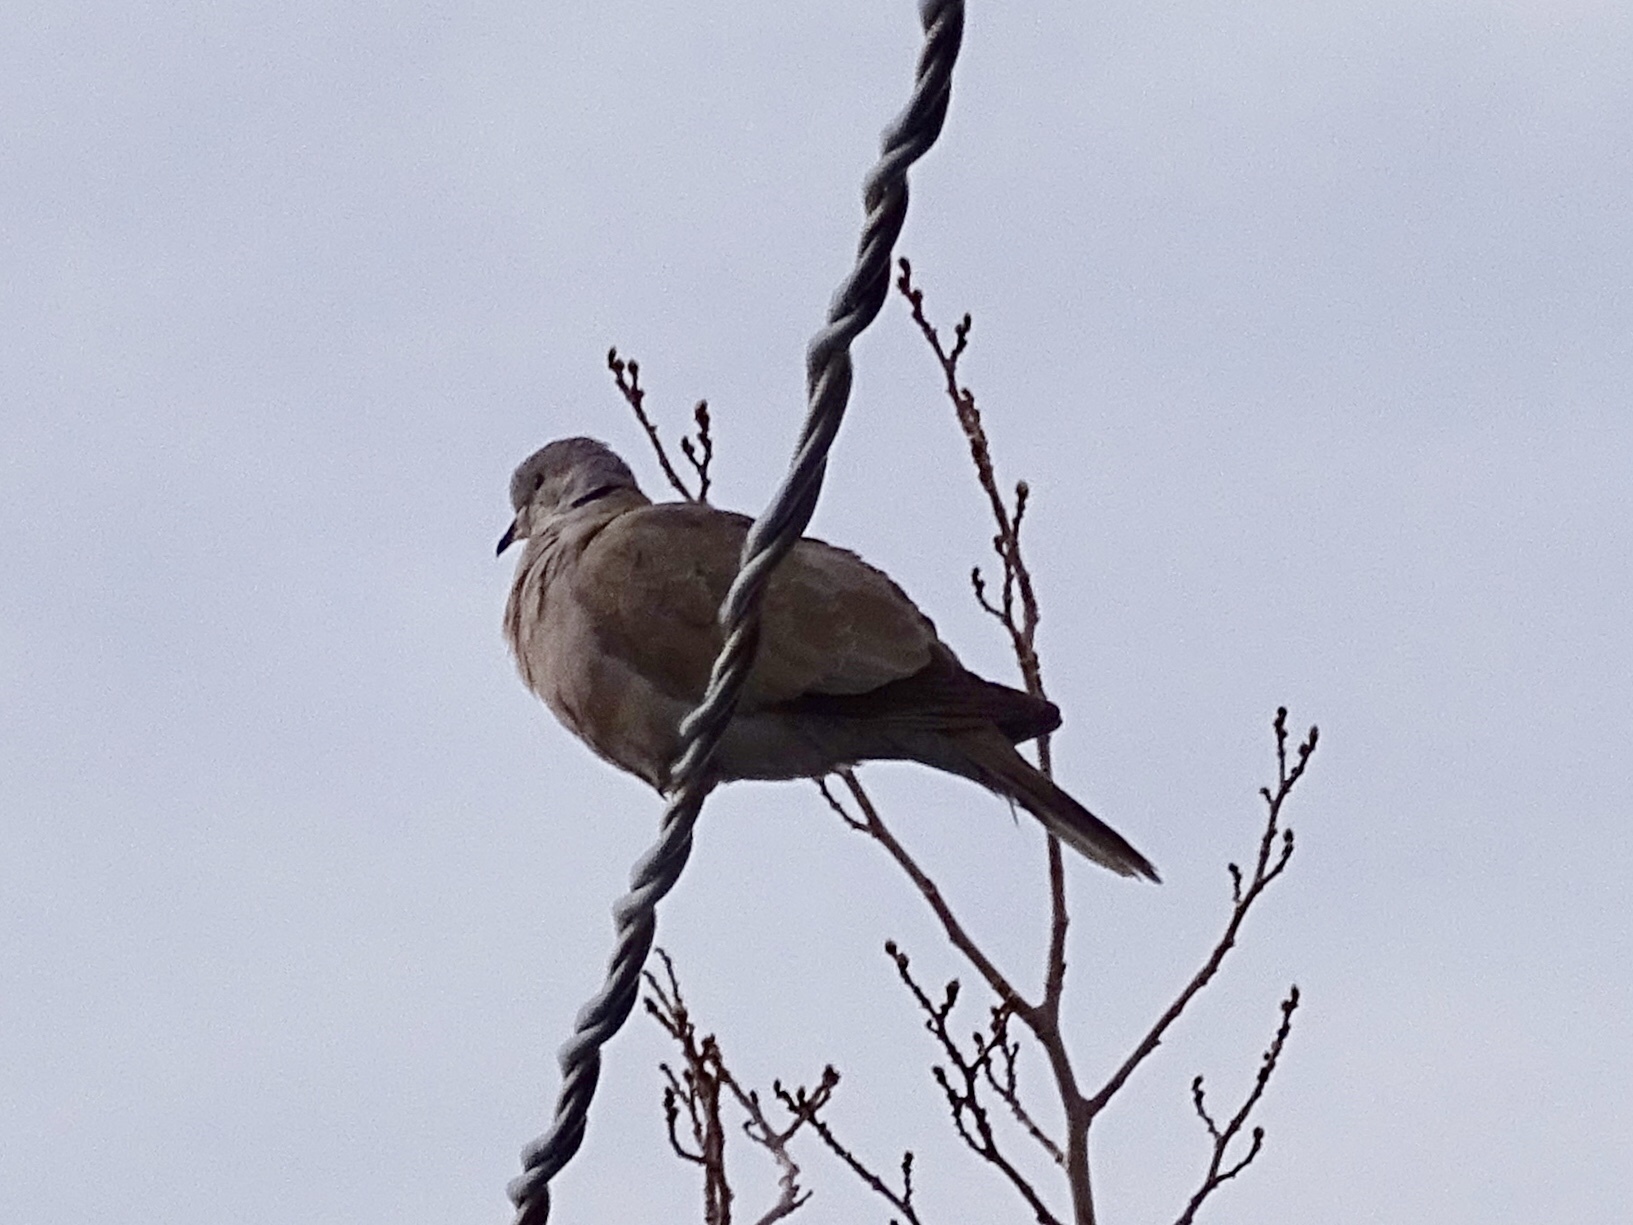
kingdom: Animalia
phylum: Chordata
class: Aves
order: Columbiformes
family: Columbidae
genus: Streptopelia
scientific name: Streptopelia decaocto
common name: Eurasian collared dove
